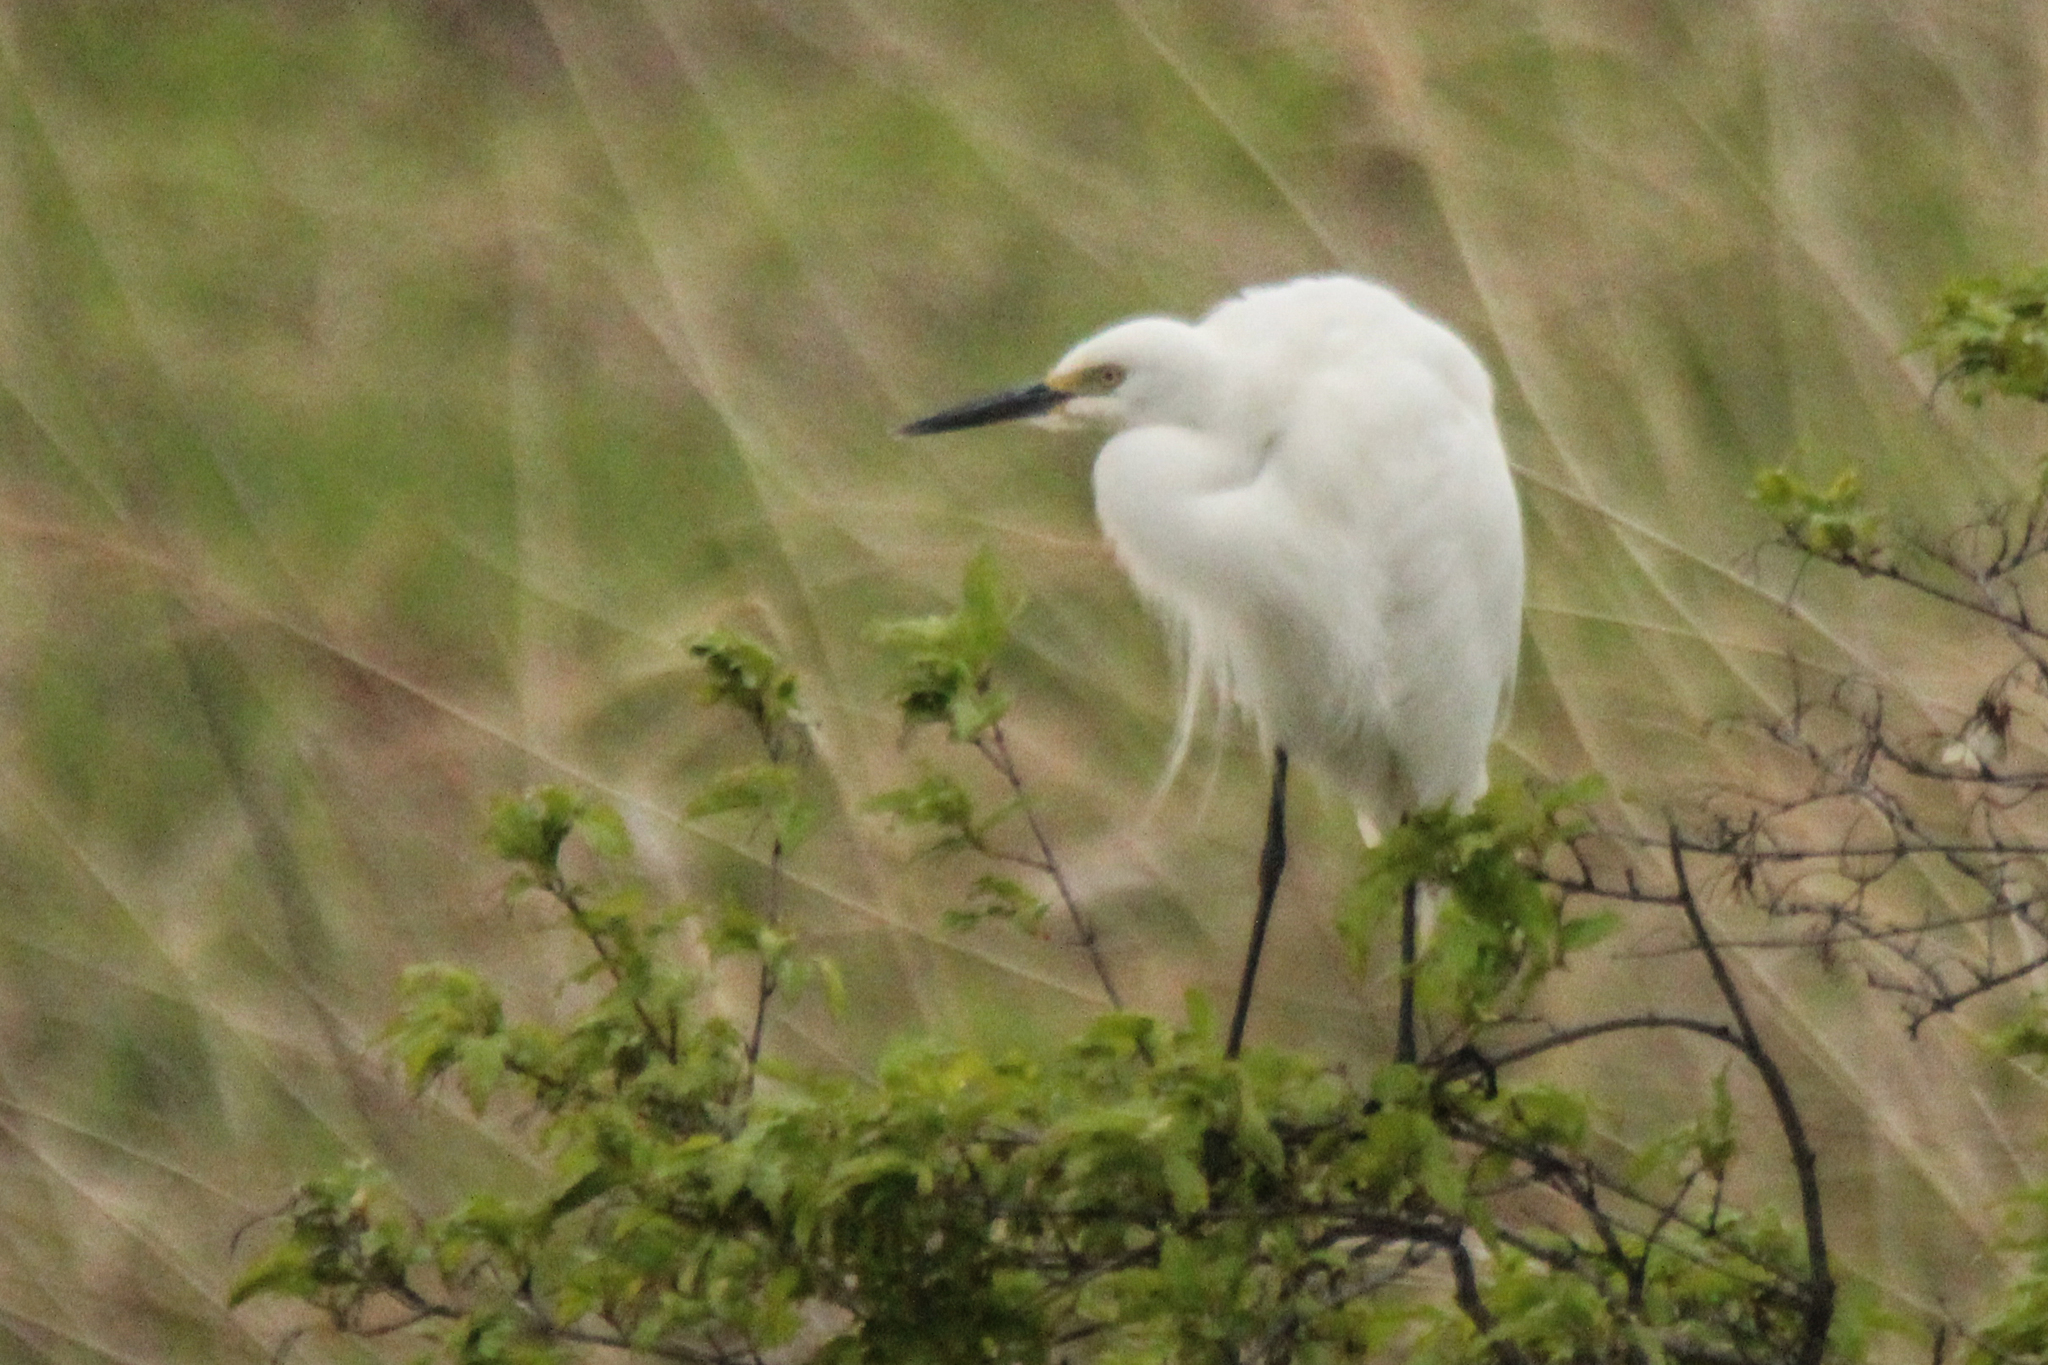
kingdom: Animalia
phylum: Chordata
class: Aves
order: Pelecaniformes
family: Ardeidae
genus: Egretta
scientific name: Egretta intermedia
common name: Intermediate egret
